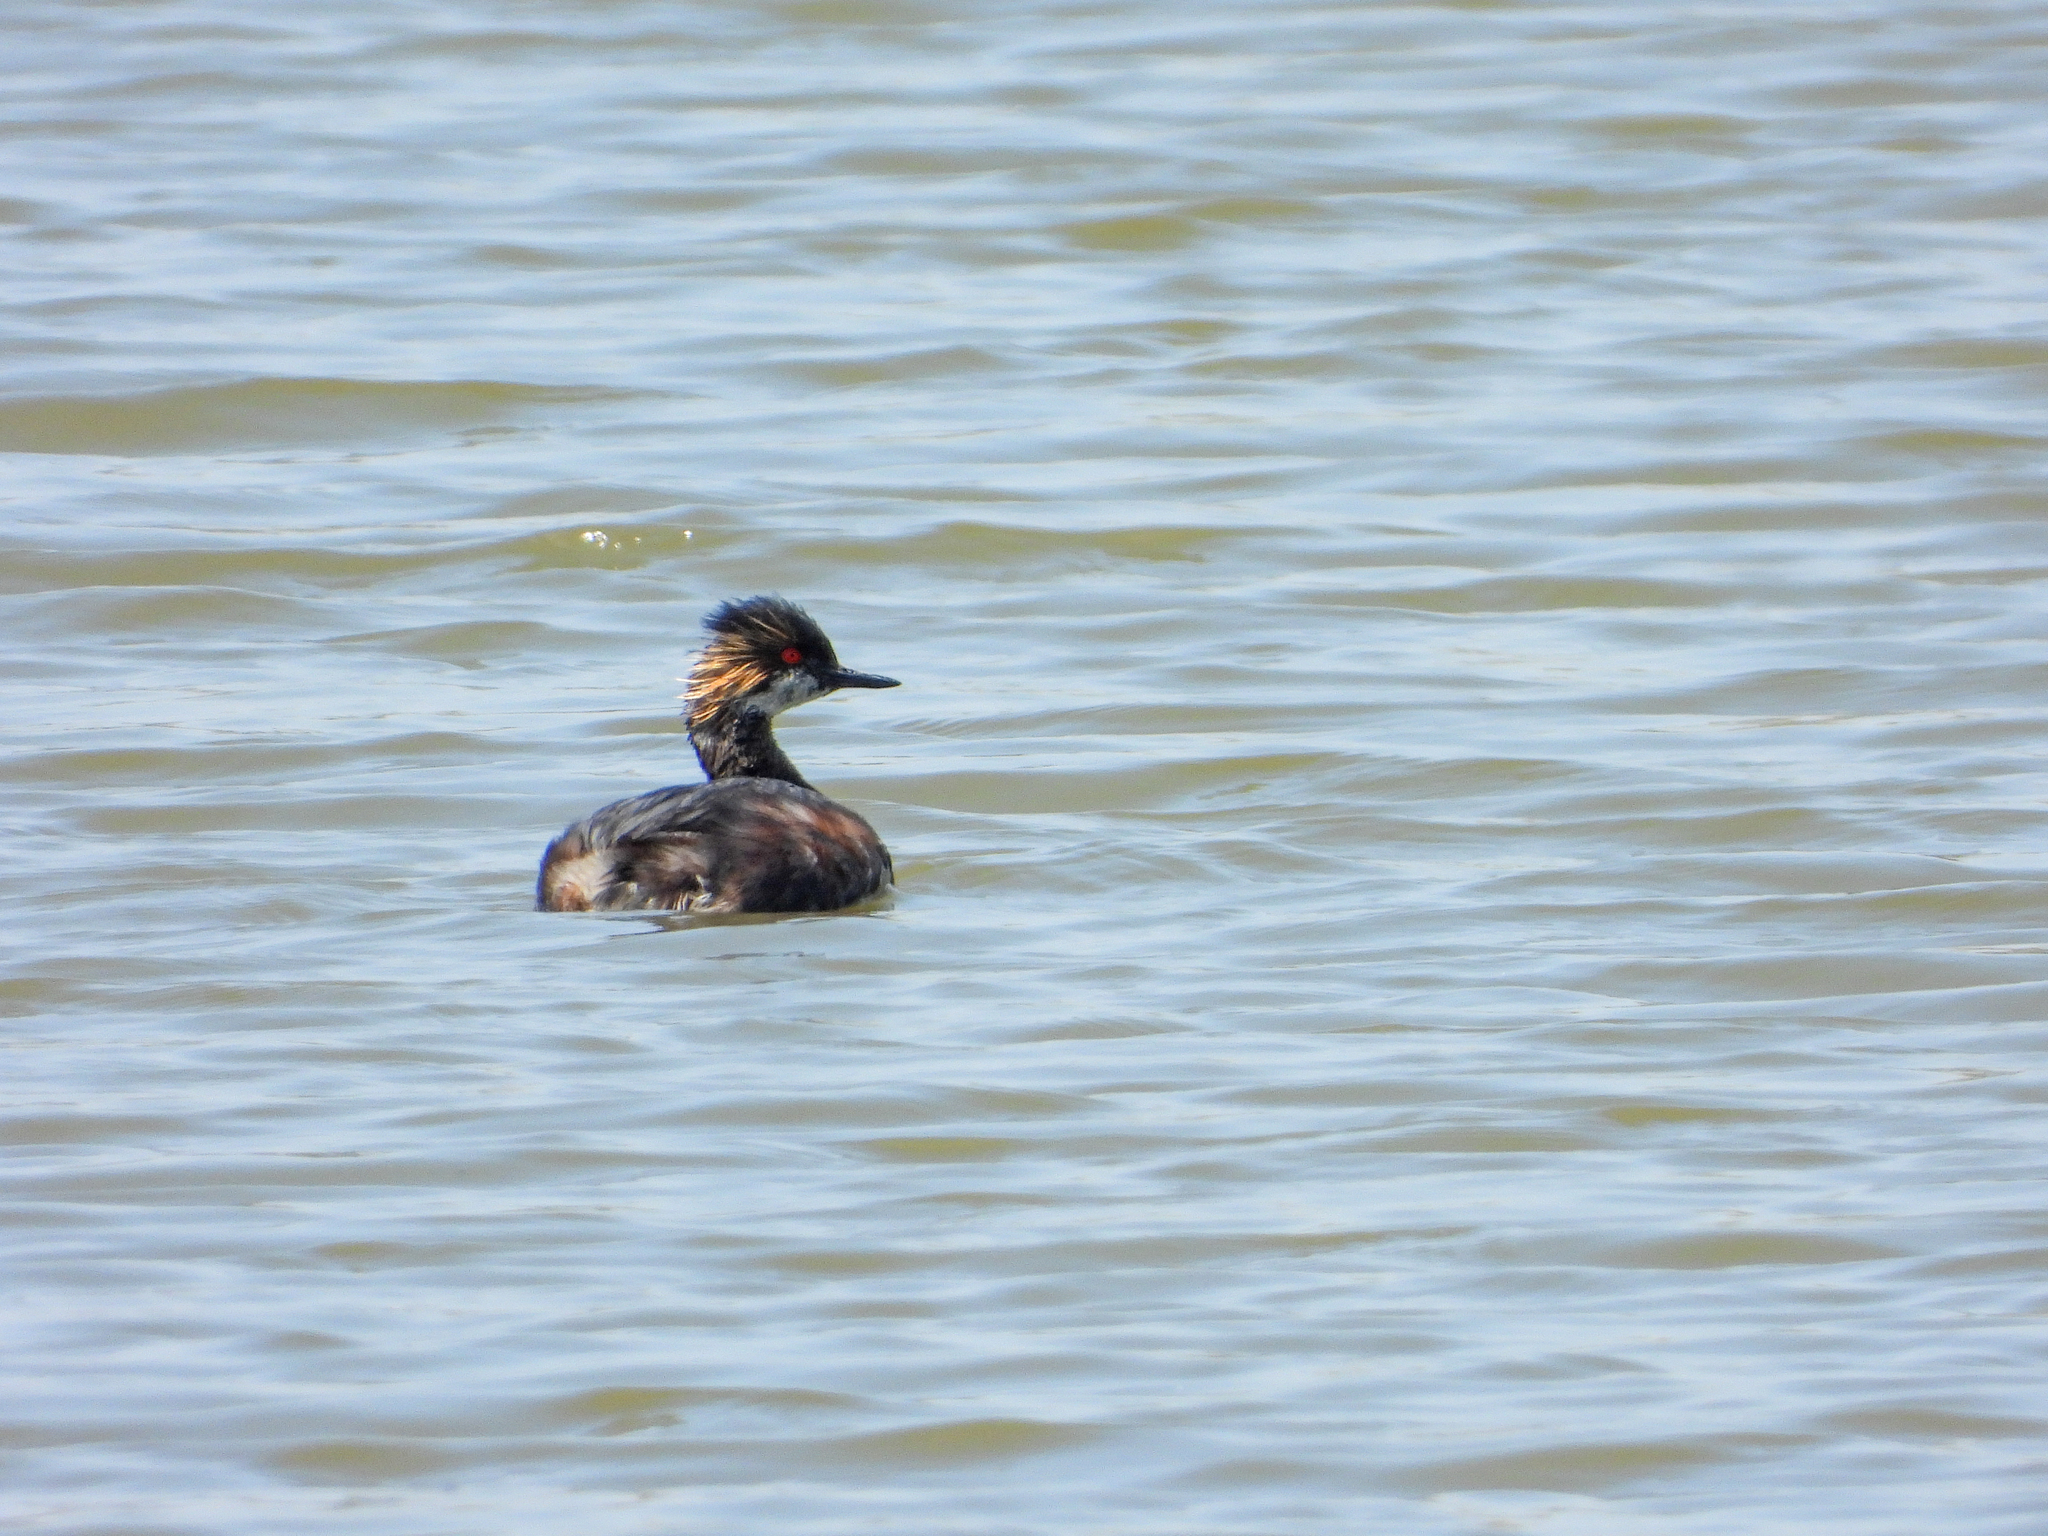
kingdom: Animalia
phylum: Chordata
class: Aves
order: Podicipediformes
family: Podicipedidae
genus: Podiceps
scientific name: Podiceps nigricollis
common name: Black-necked grebe
